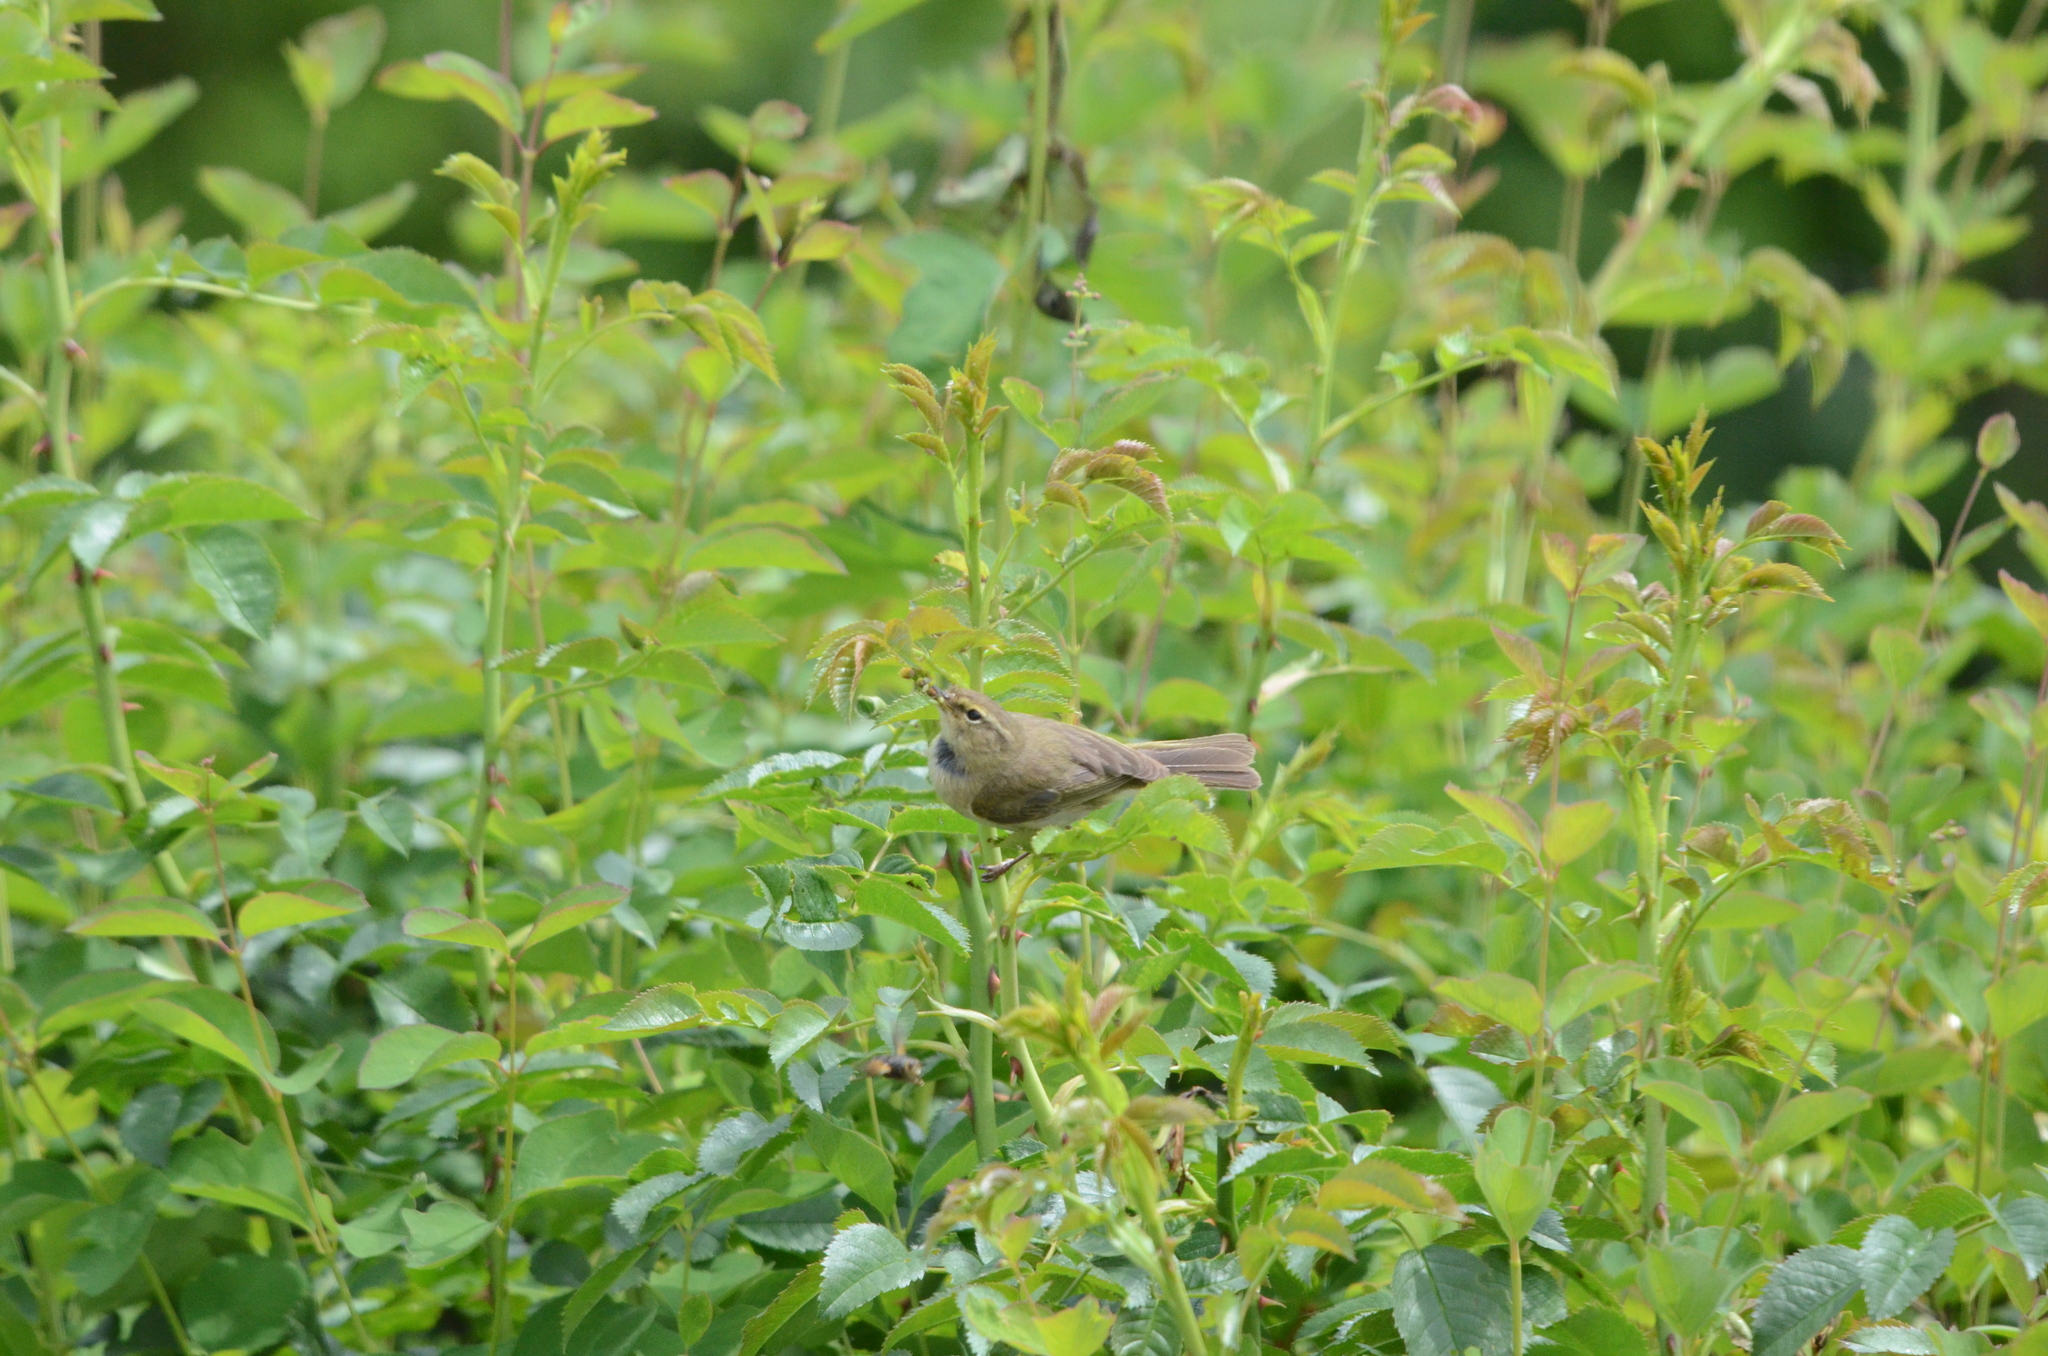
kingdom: Animalia
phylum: Chordata
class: Aves
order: Passeriformes
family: Phylloscopidae
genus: Phylloscopus
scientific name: Phylloscopus trochilus
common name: Willow warbler
